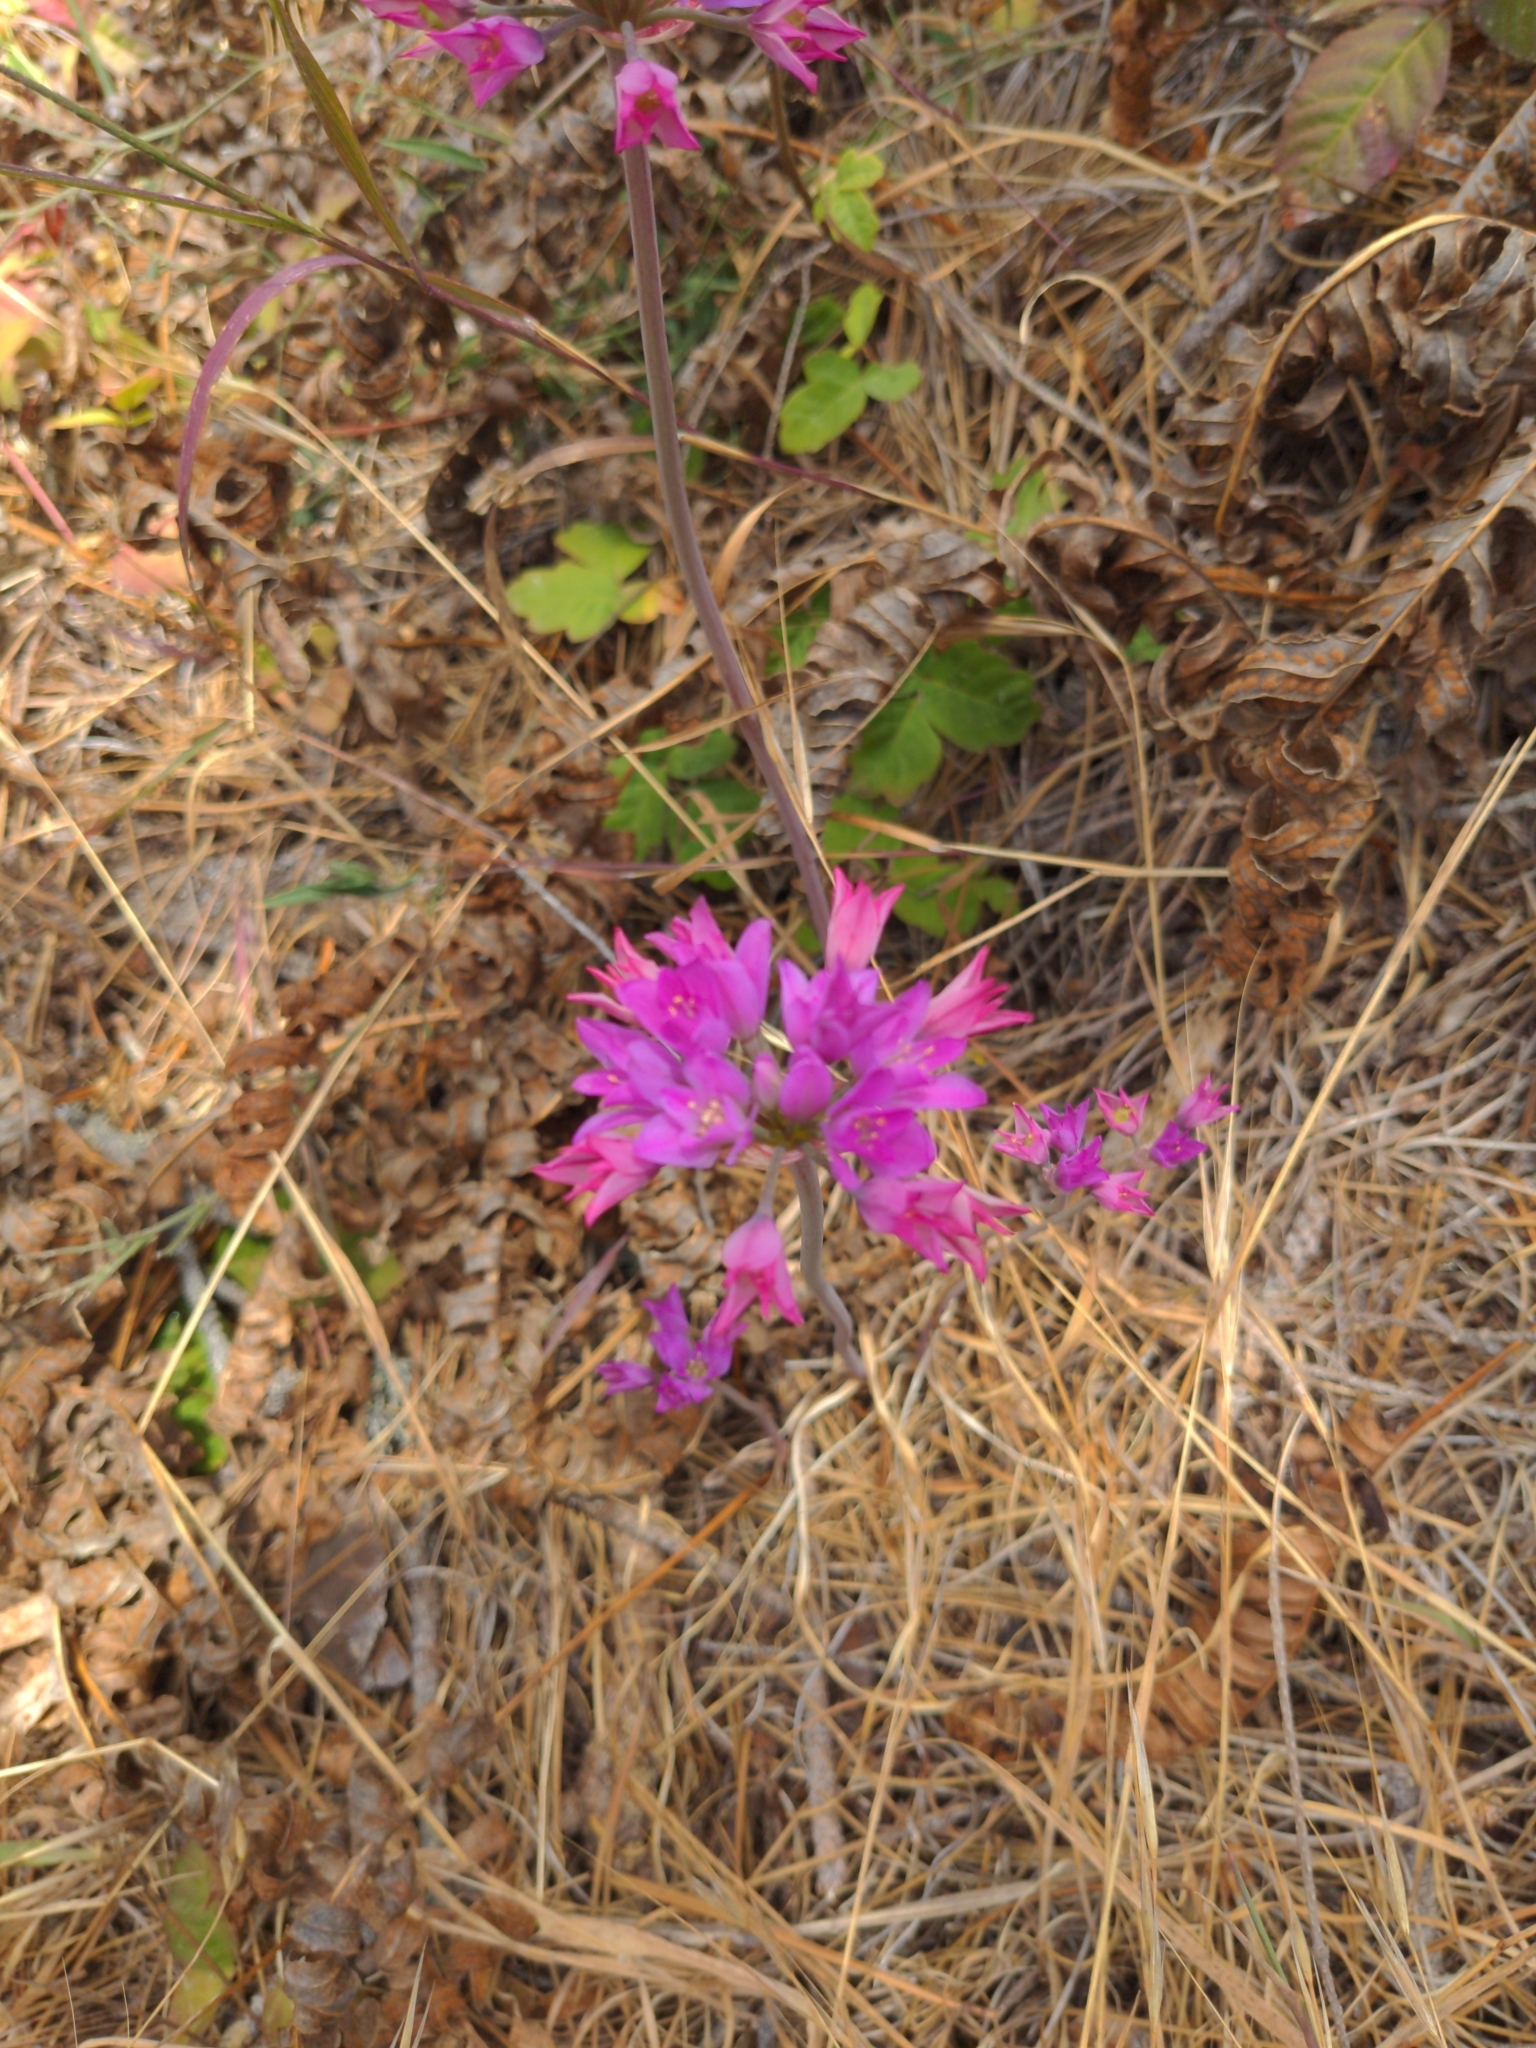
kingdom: Plantae
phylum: Tracheophyta
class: Liliopsida
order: Asparagales
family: Amaryllidaceae
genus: Allium
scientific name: Allium dichlamydeum
